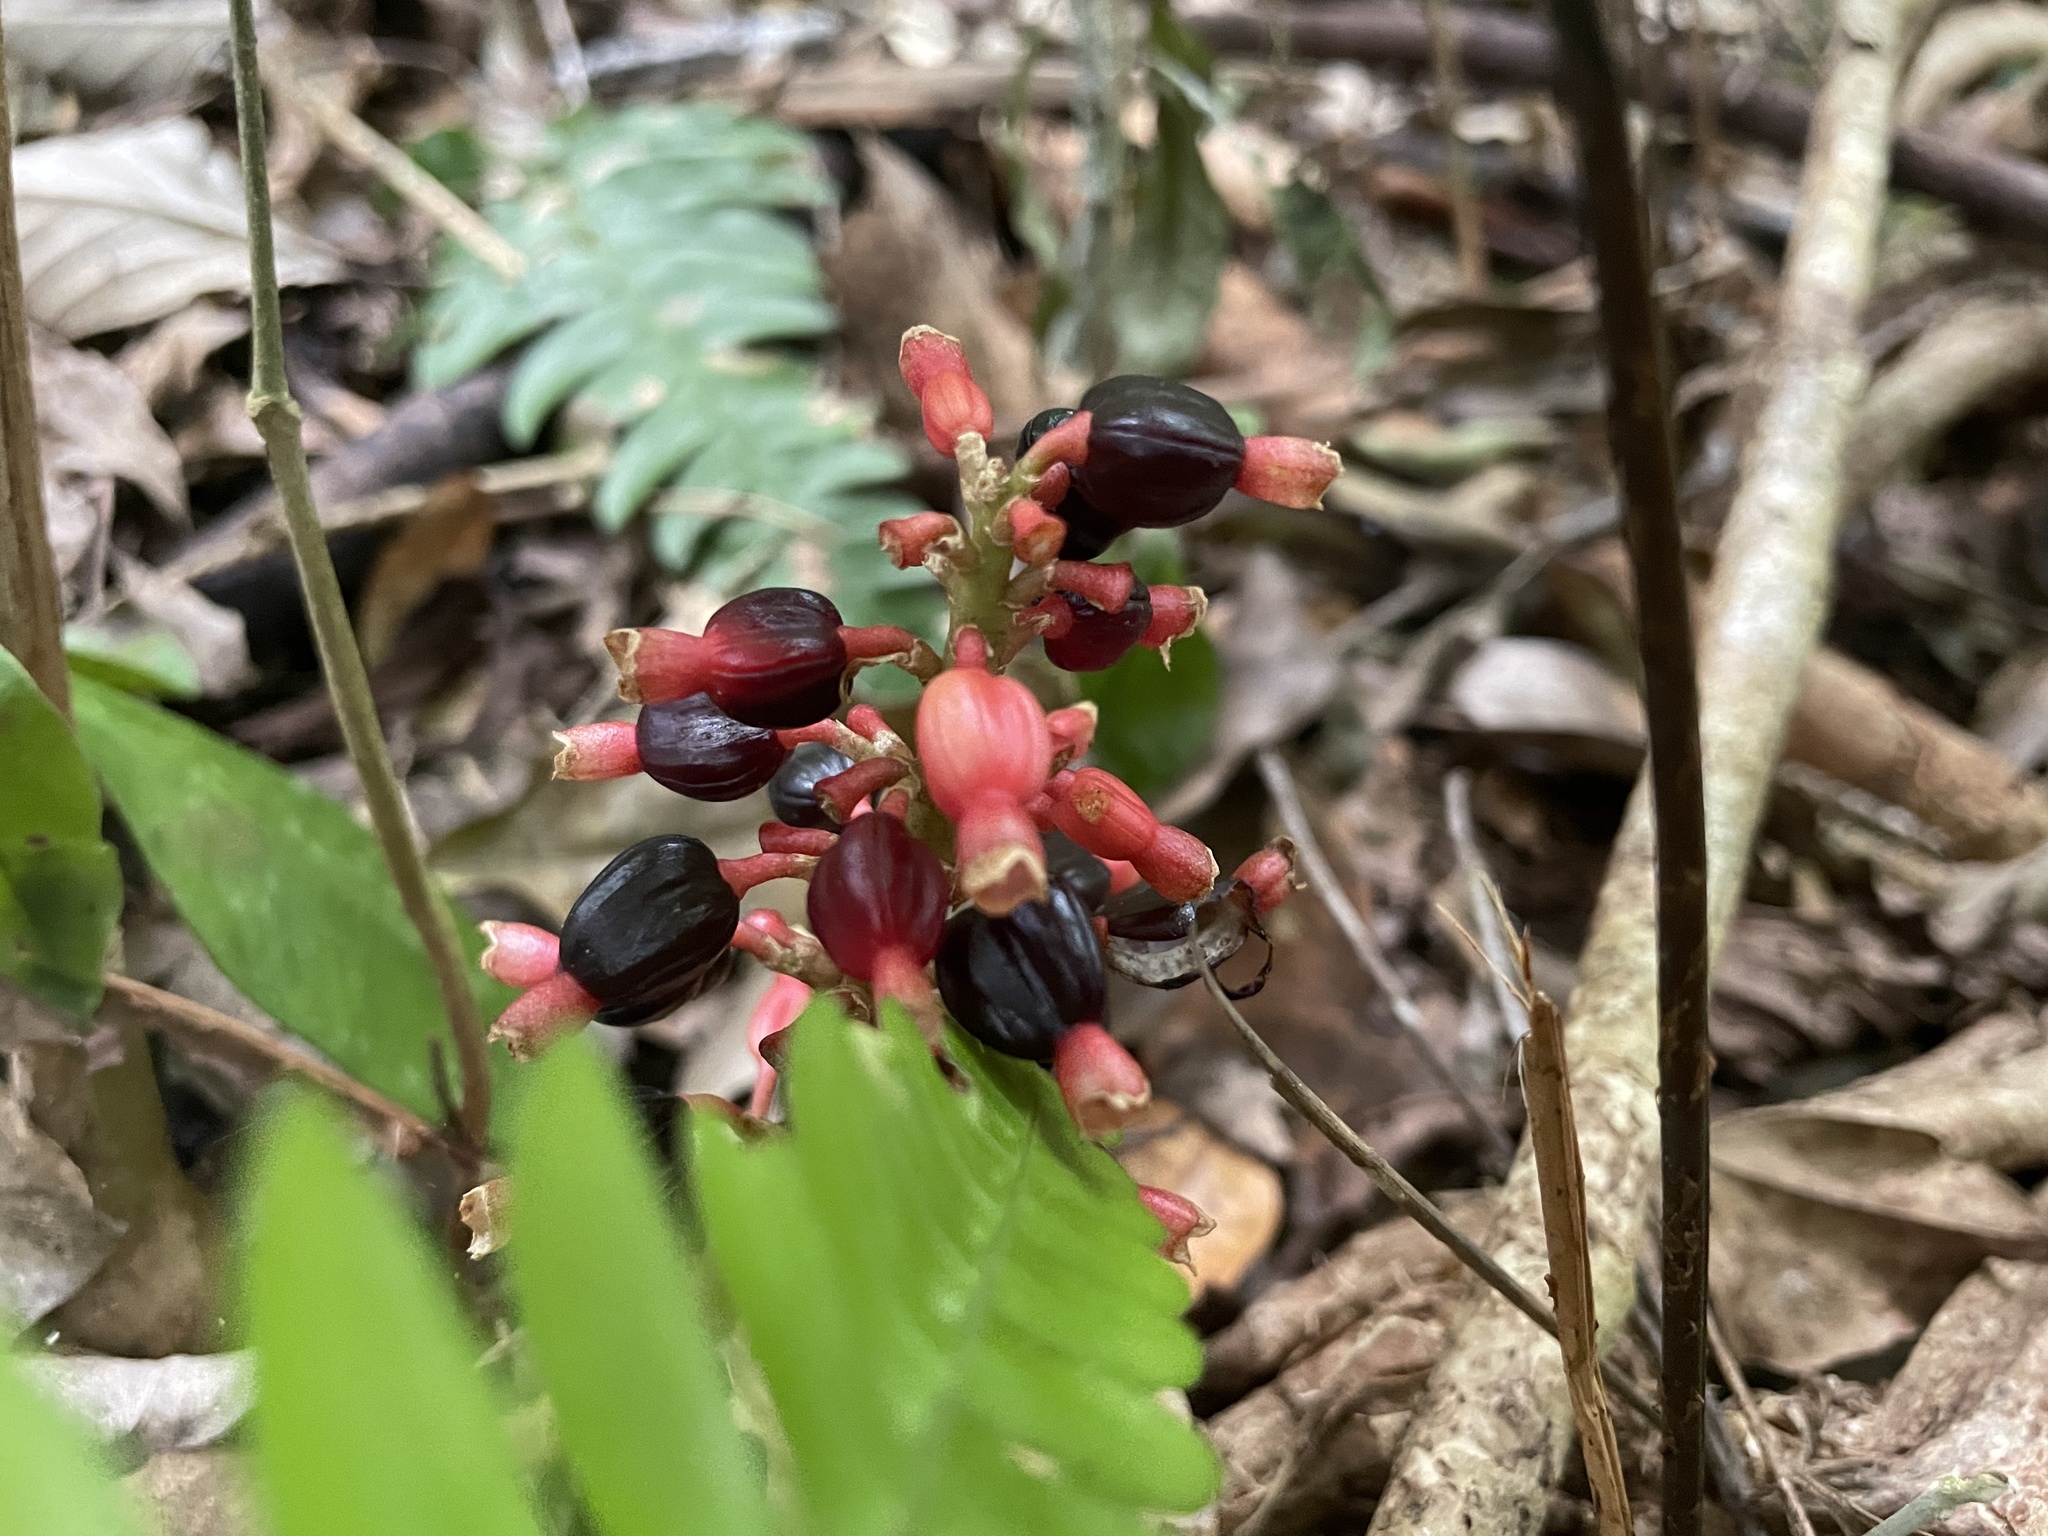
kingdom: Plantae
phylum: Tracheophyta
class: Liliopsida
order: Zingiberales
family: Zingiberaceae
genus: Renealmia
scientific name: Renealmia alpinia
